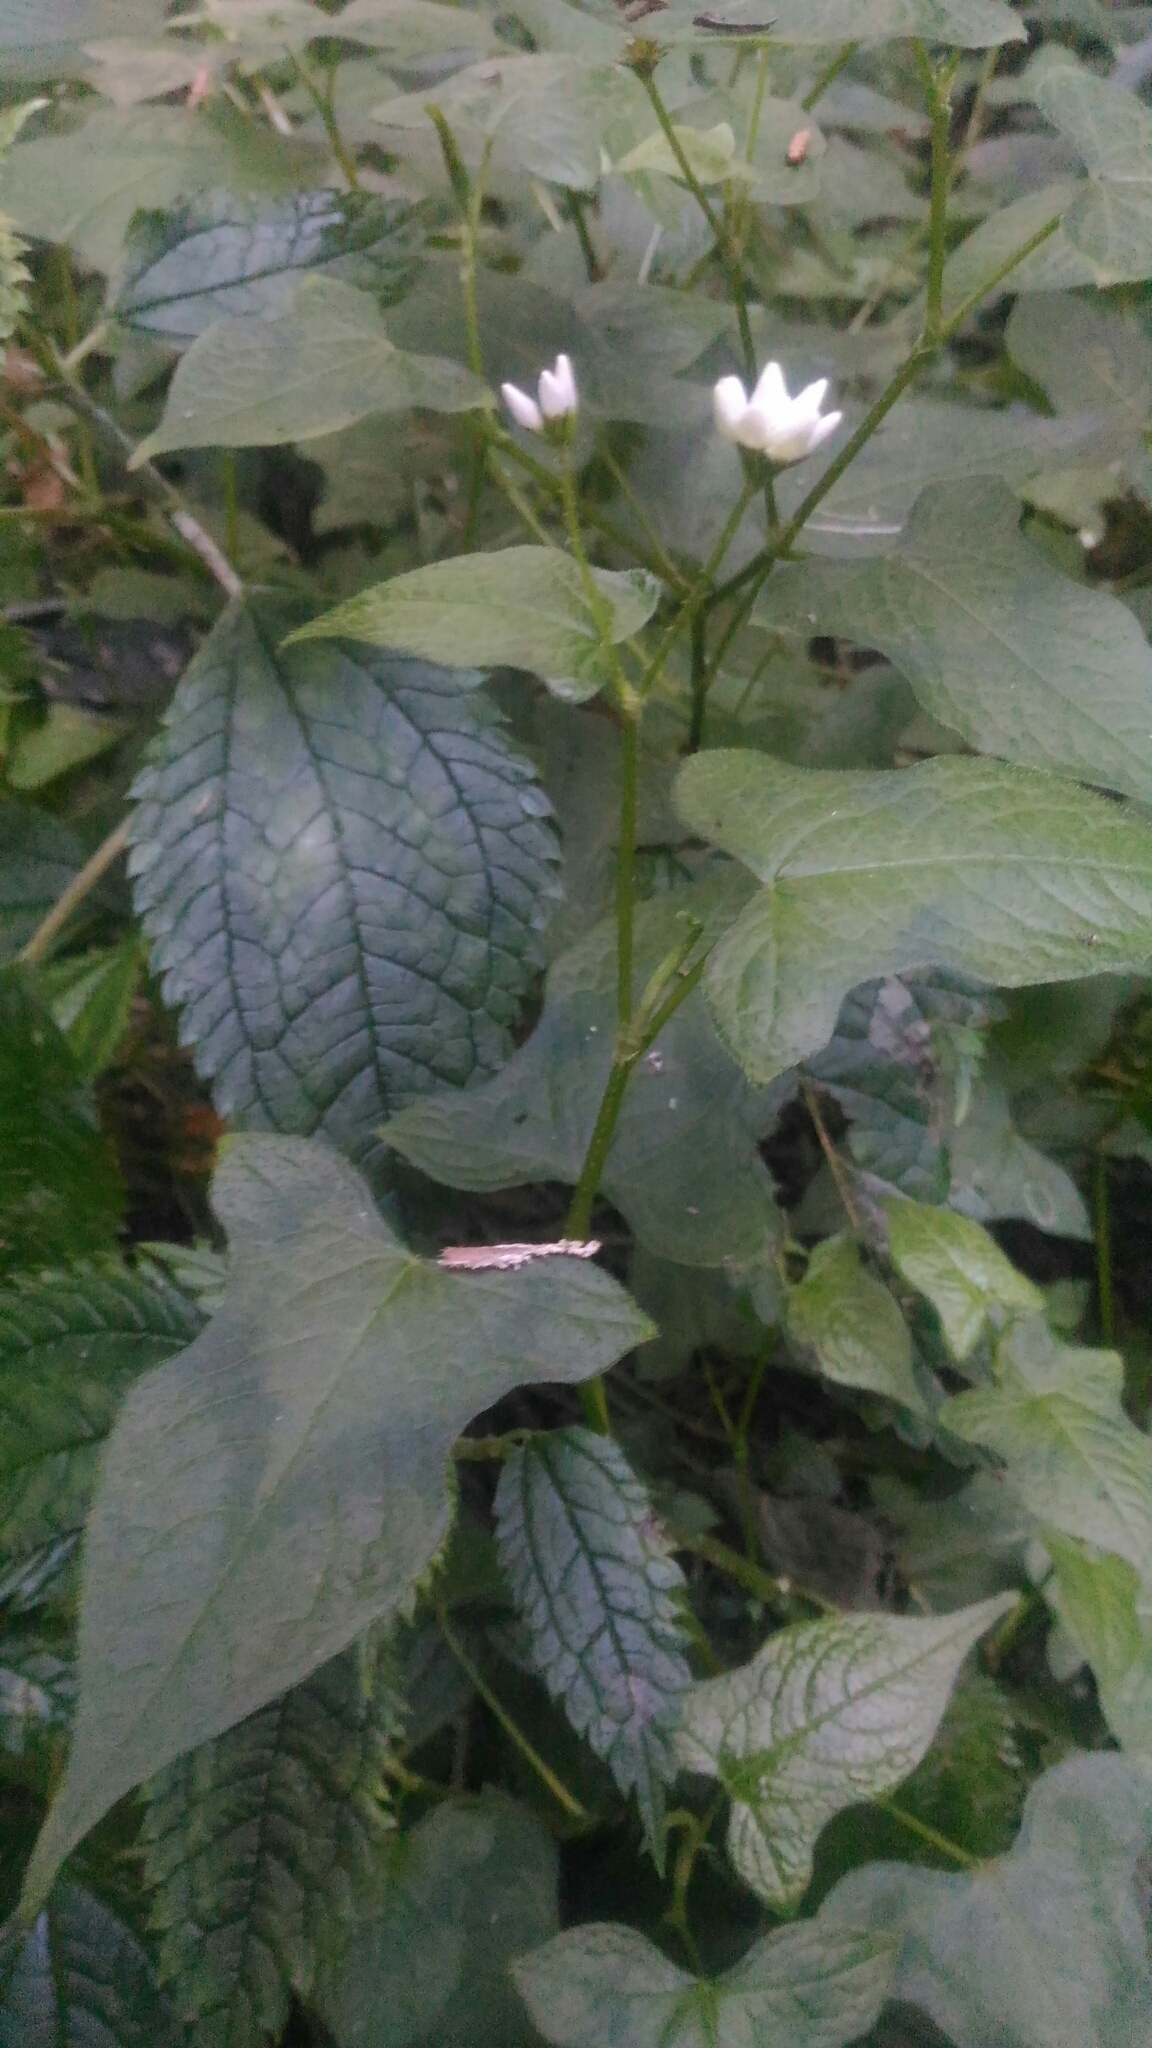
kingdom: Plantae
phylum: Tracheophyta
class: Magnoliopsida
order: Caryophyllales
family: Polygonaceae
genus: Persicaria
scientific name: Persicaria biconvexa
